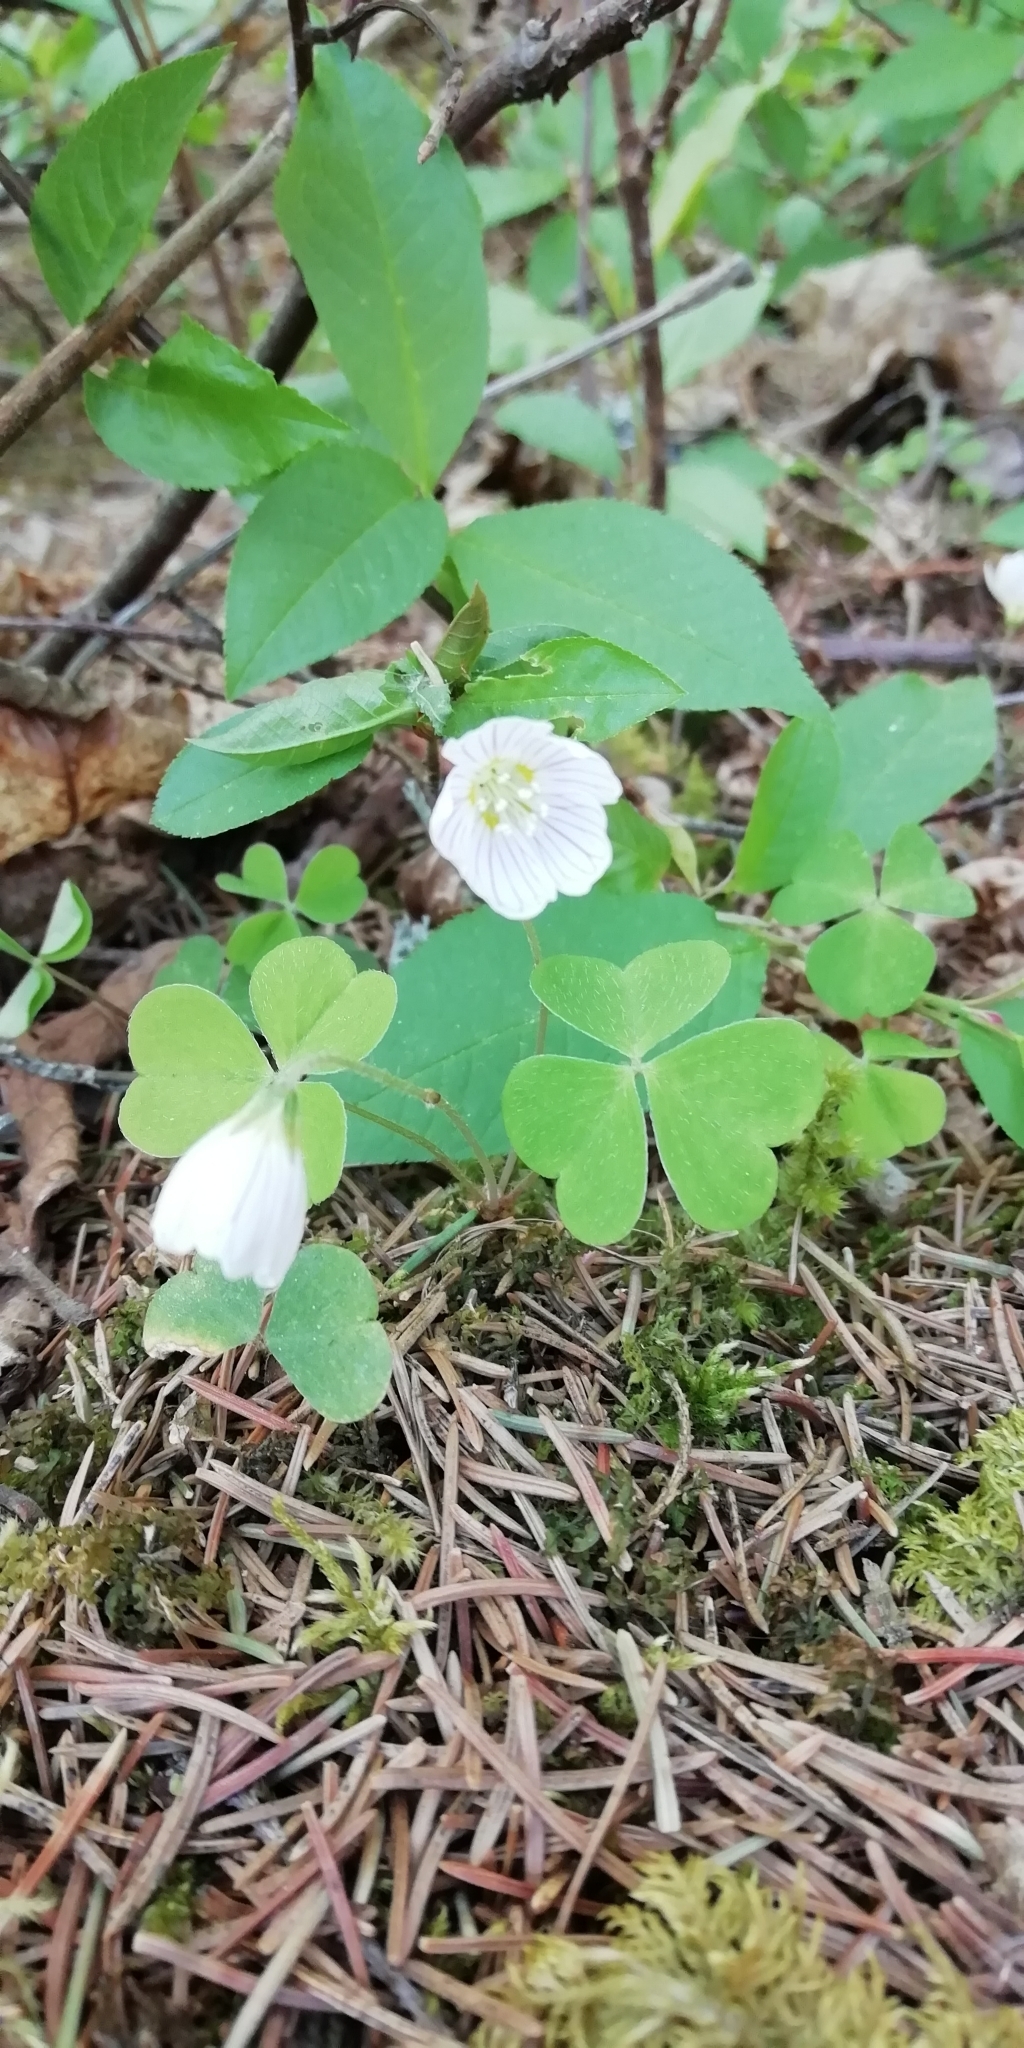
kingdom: Plantae
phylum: Tracheophyta
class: Magnoliopsida
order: Oxalidales
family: Oxalidaceae
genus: Oxalis
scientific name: Oxalis acetosella
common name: Wood-sorrel
